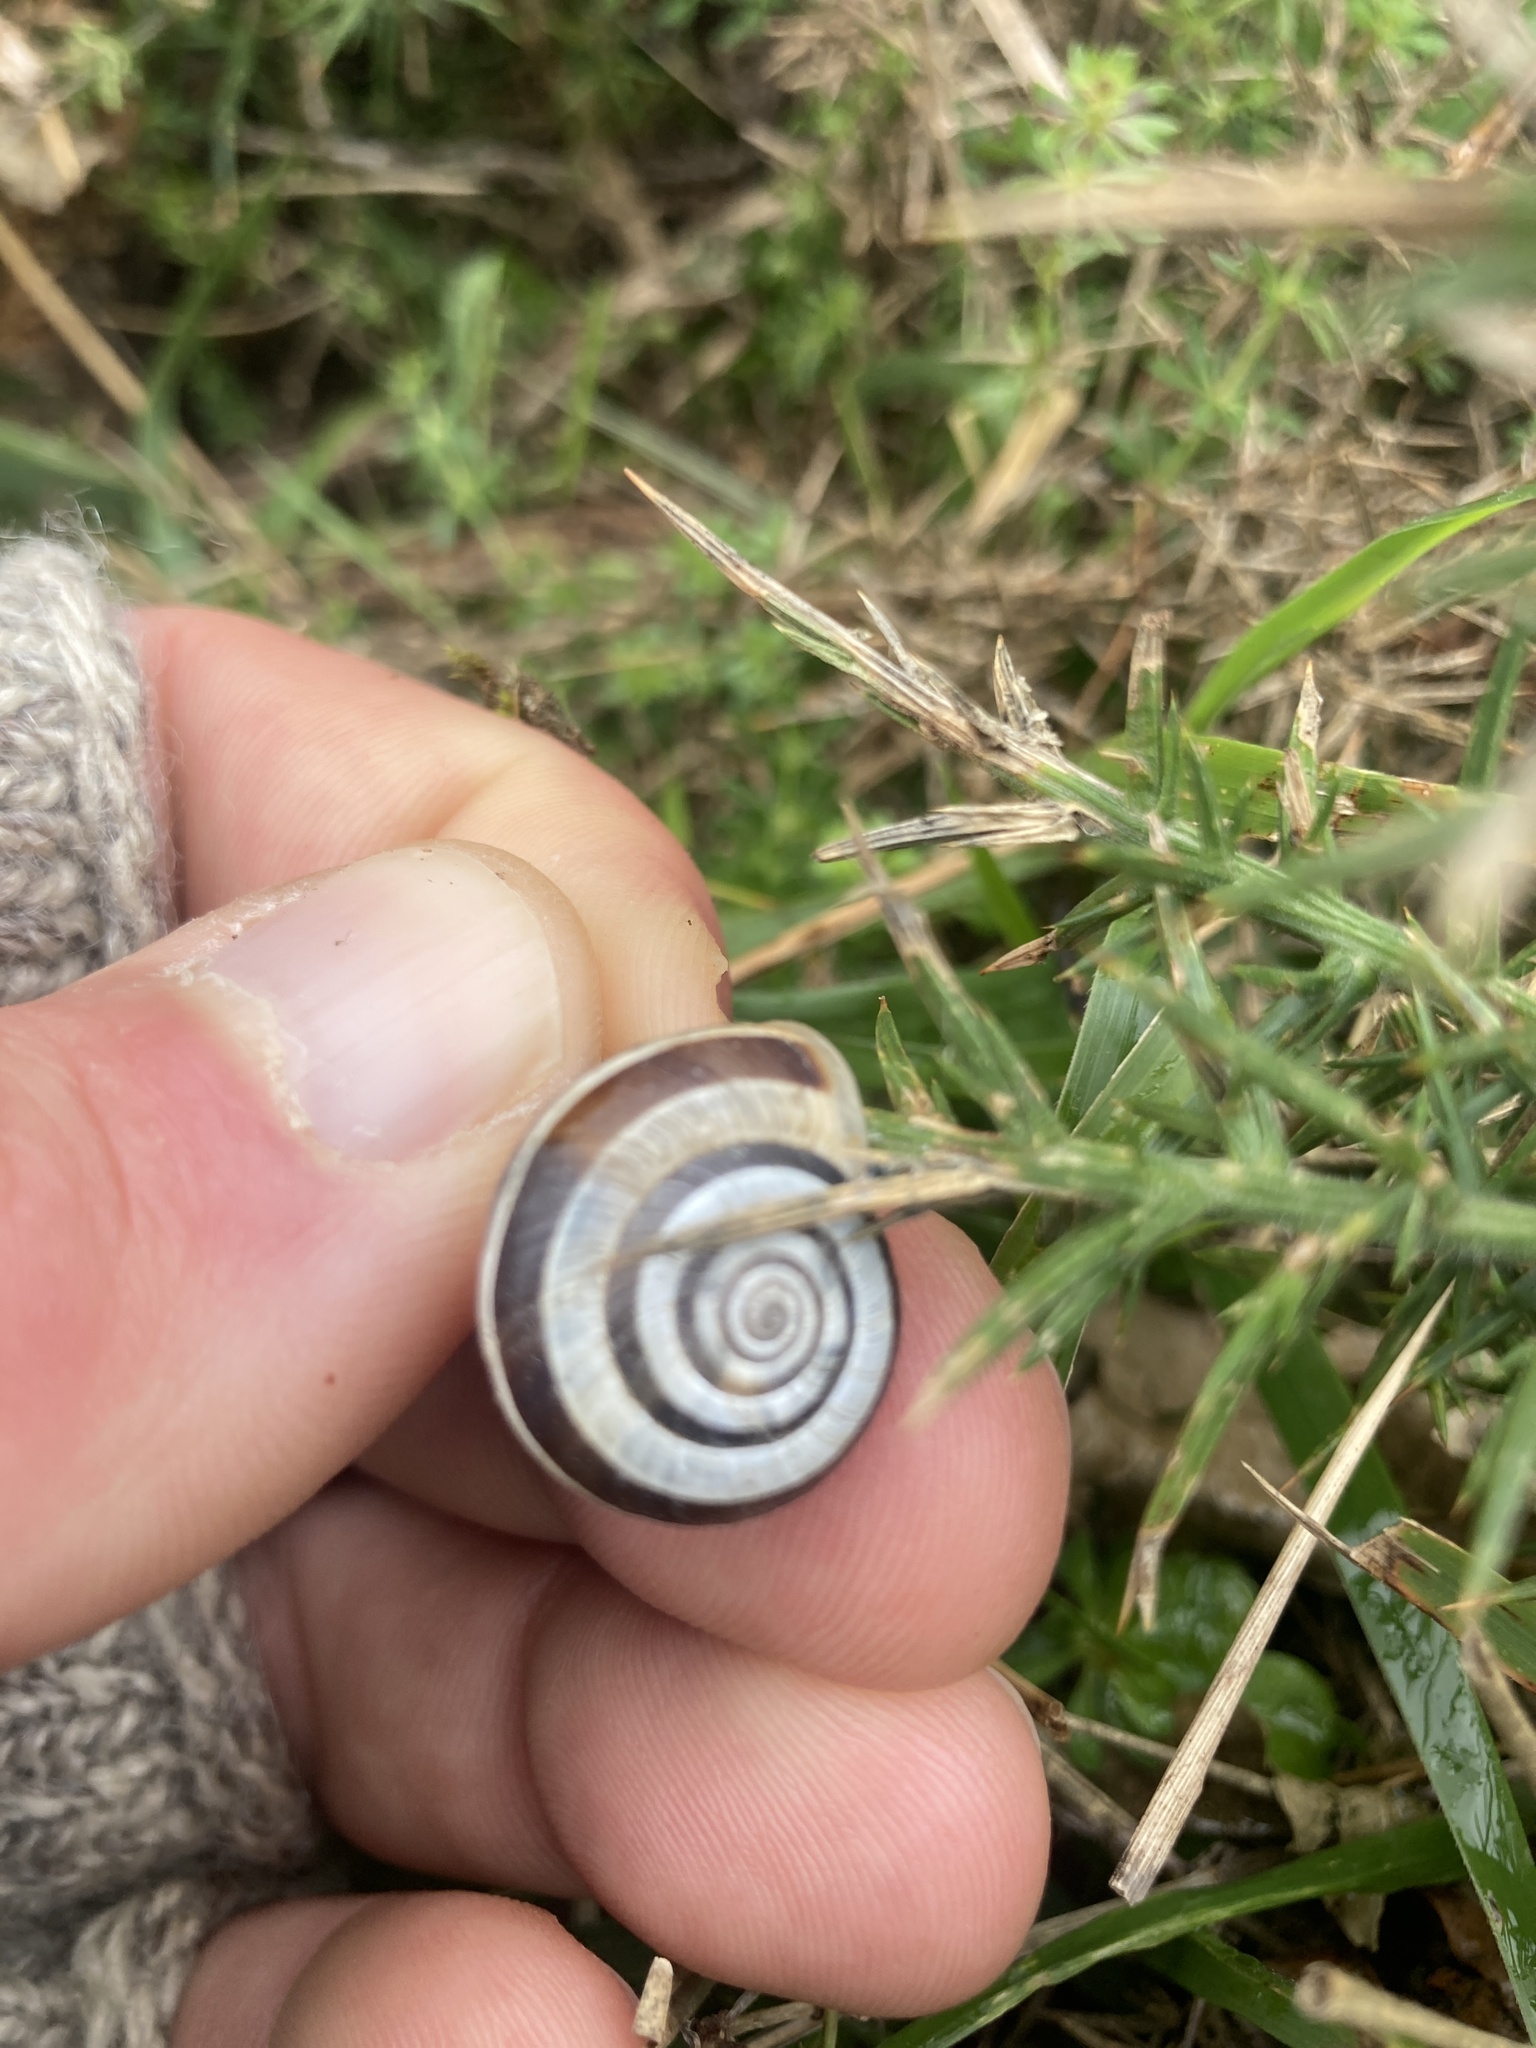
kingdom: Animalia
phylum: Mollusca
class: Gastropoda
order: Stylommatophora
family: Geomitridae
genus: Helicella
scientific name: Helicella itala
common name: Heath snail
